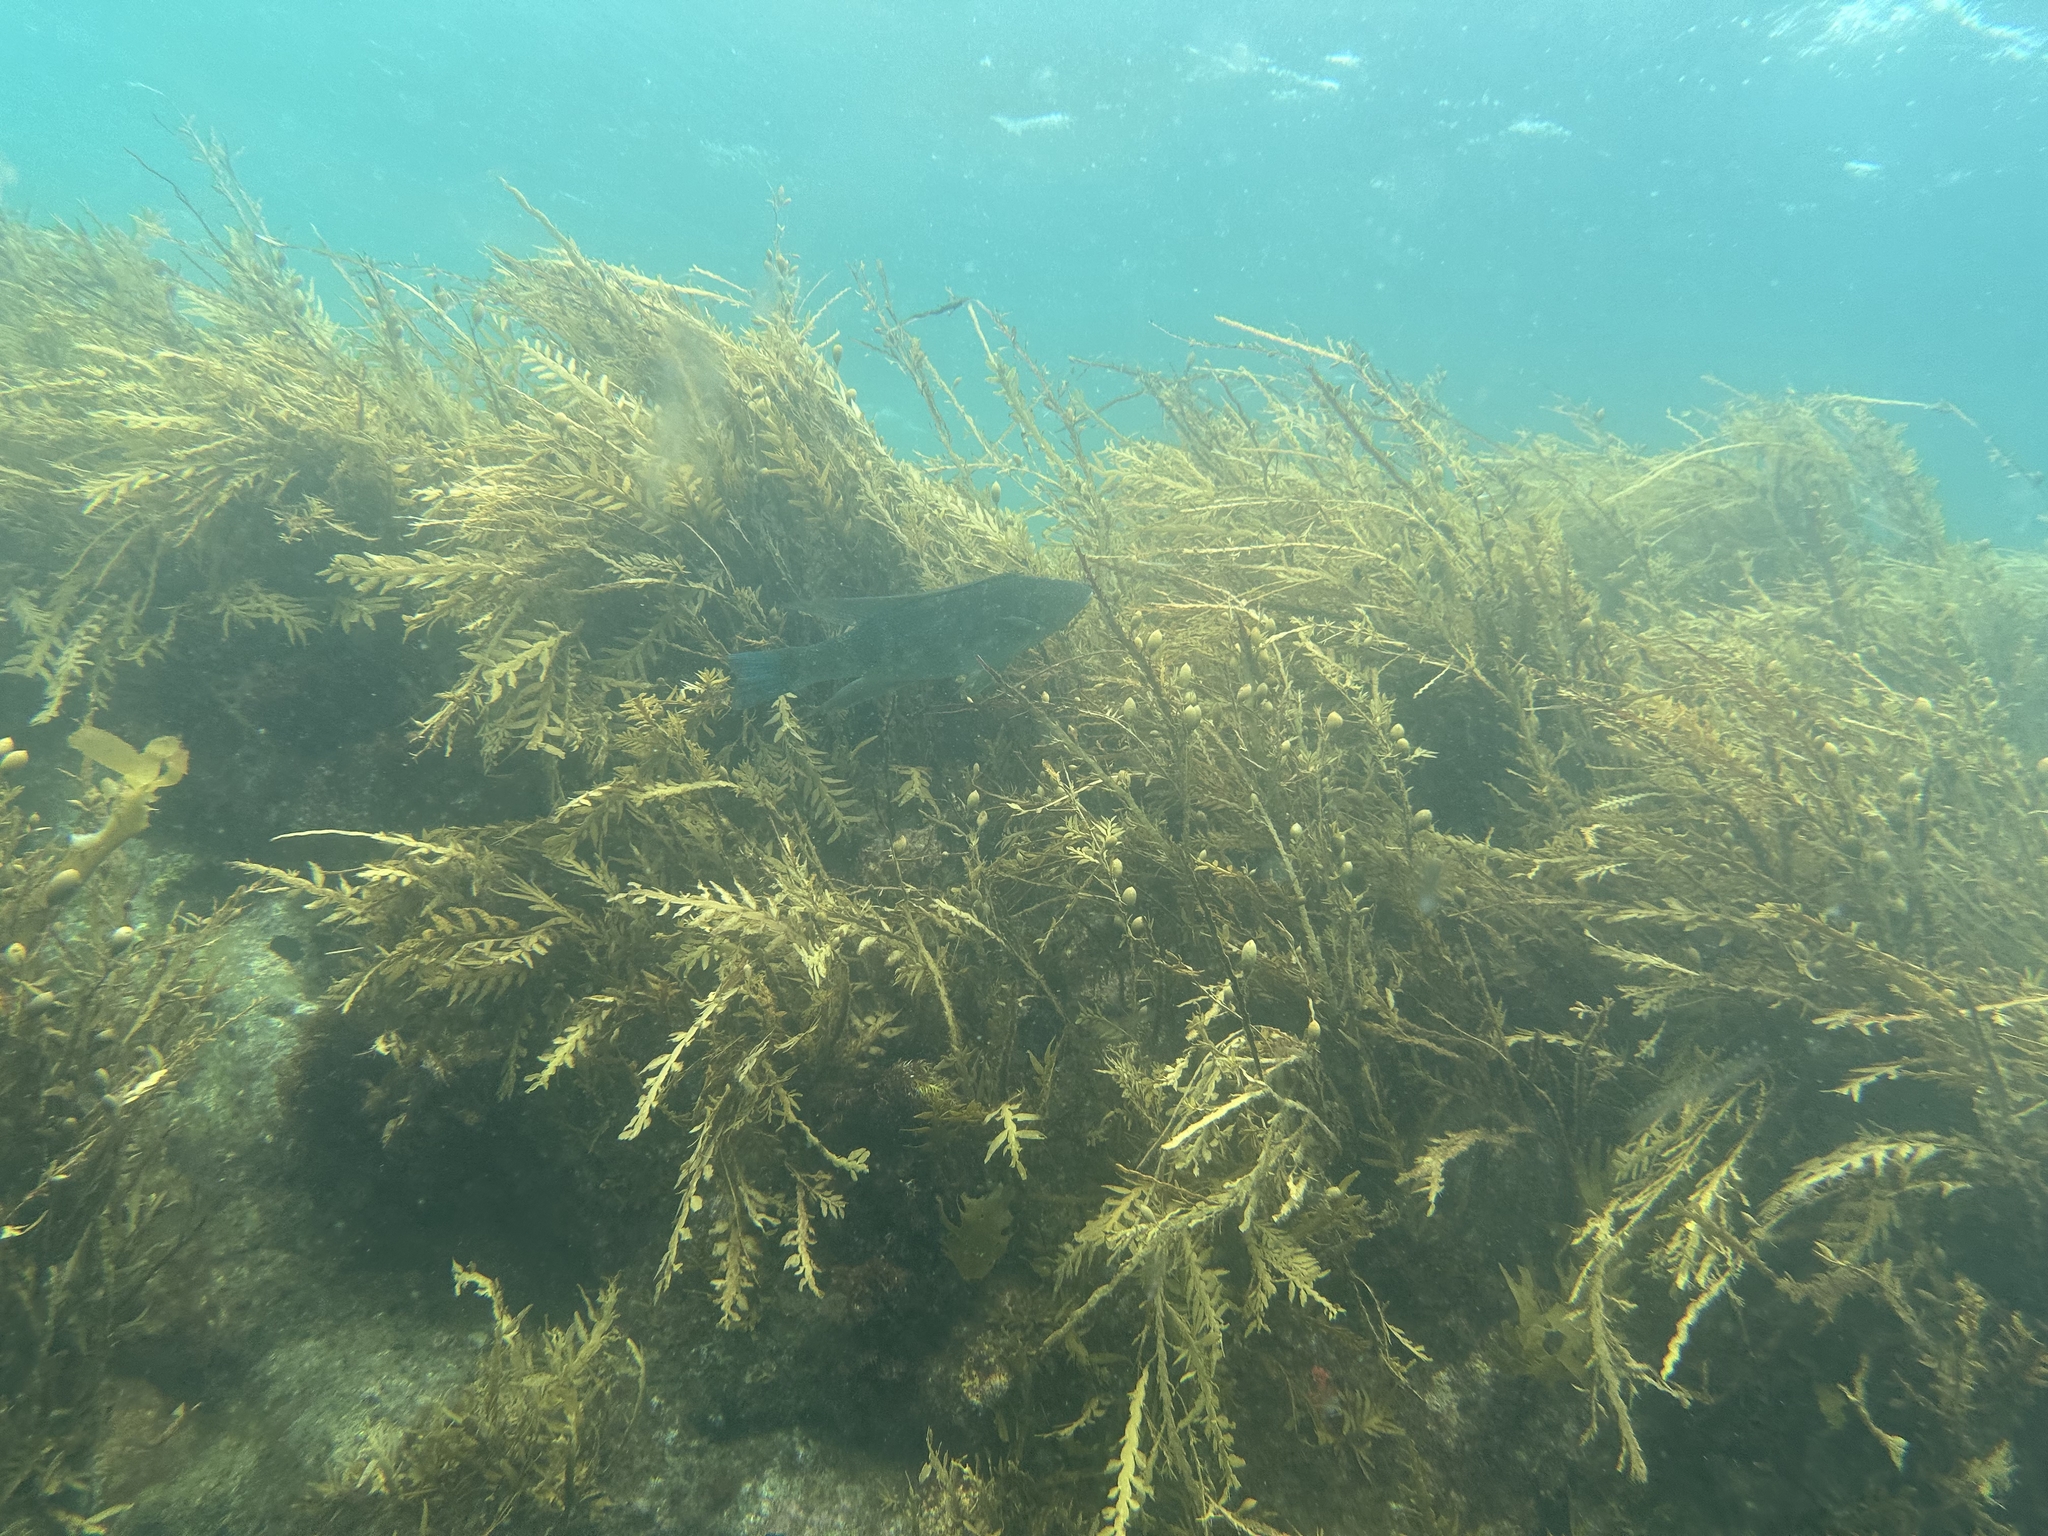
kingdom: Animalia
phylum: Chordata
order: Perciformes
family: Odacidae
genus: Odax
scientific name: Odax pullus
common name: Butterfish
